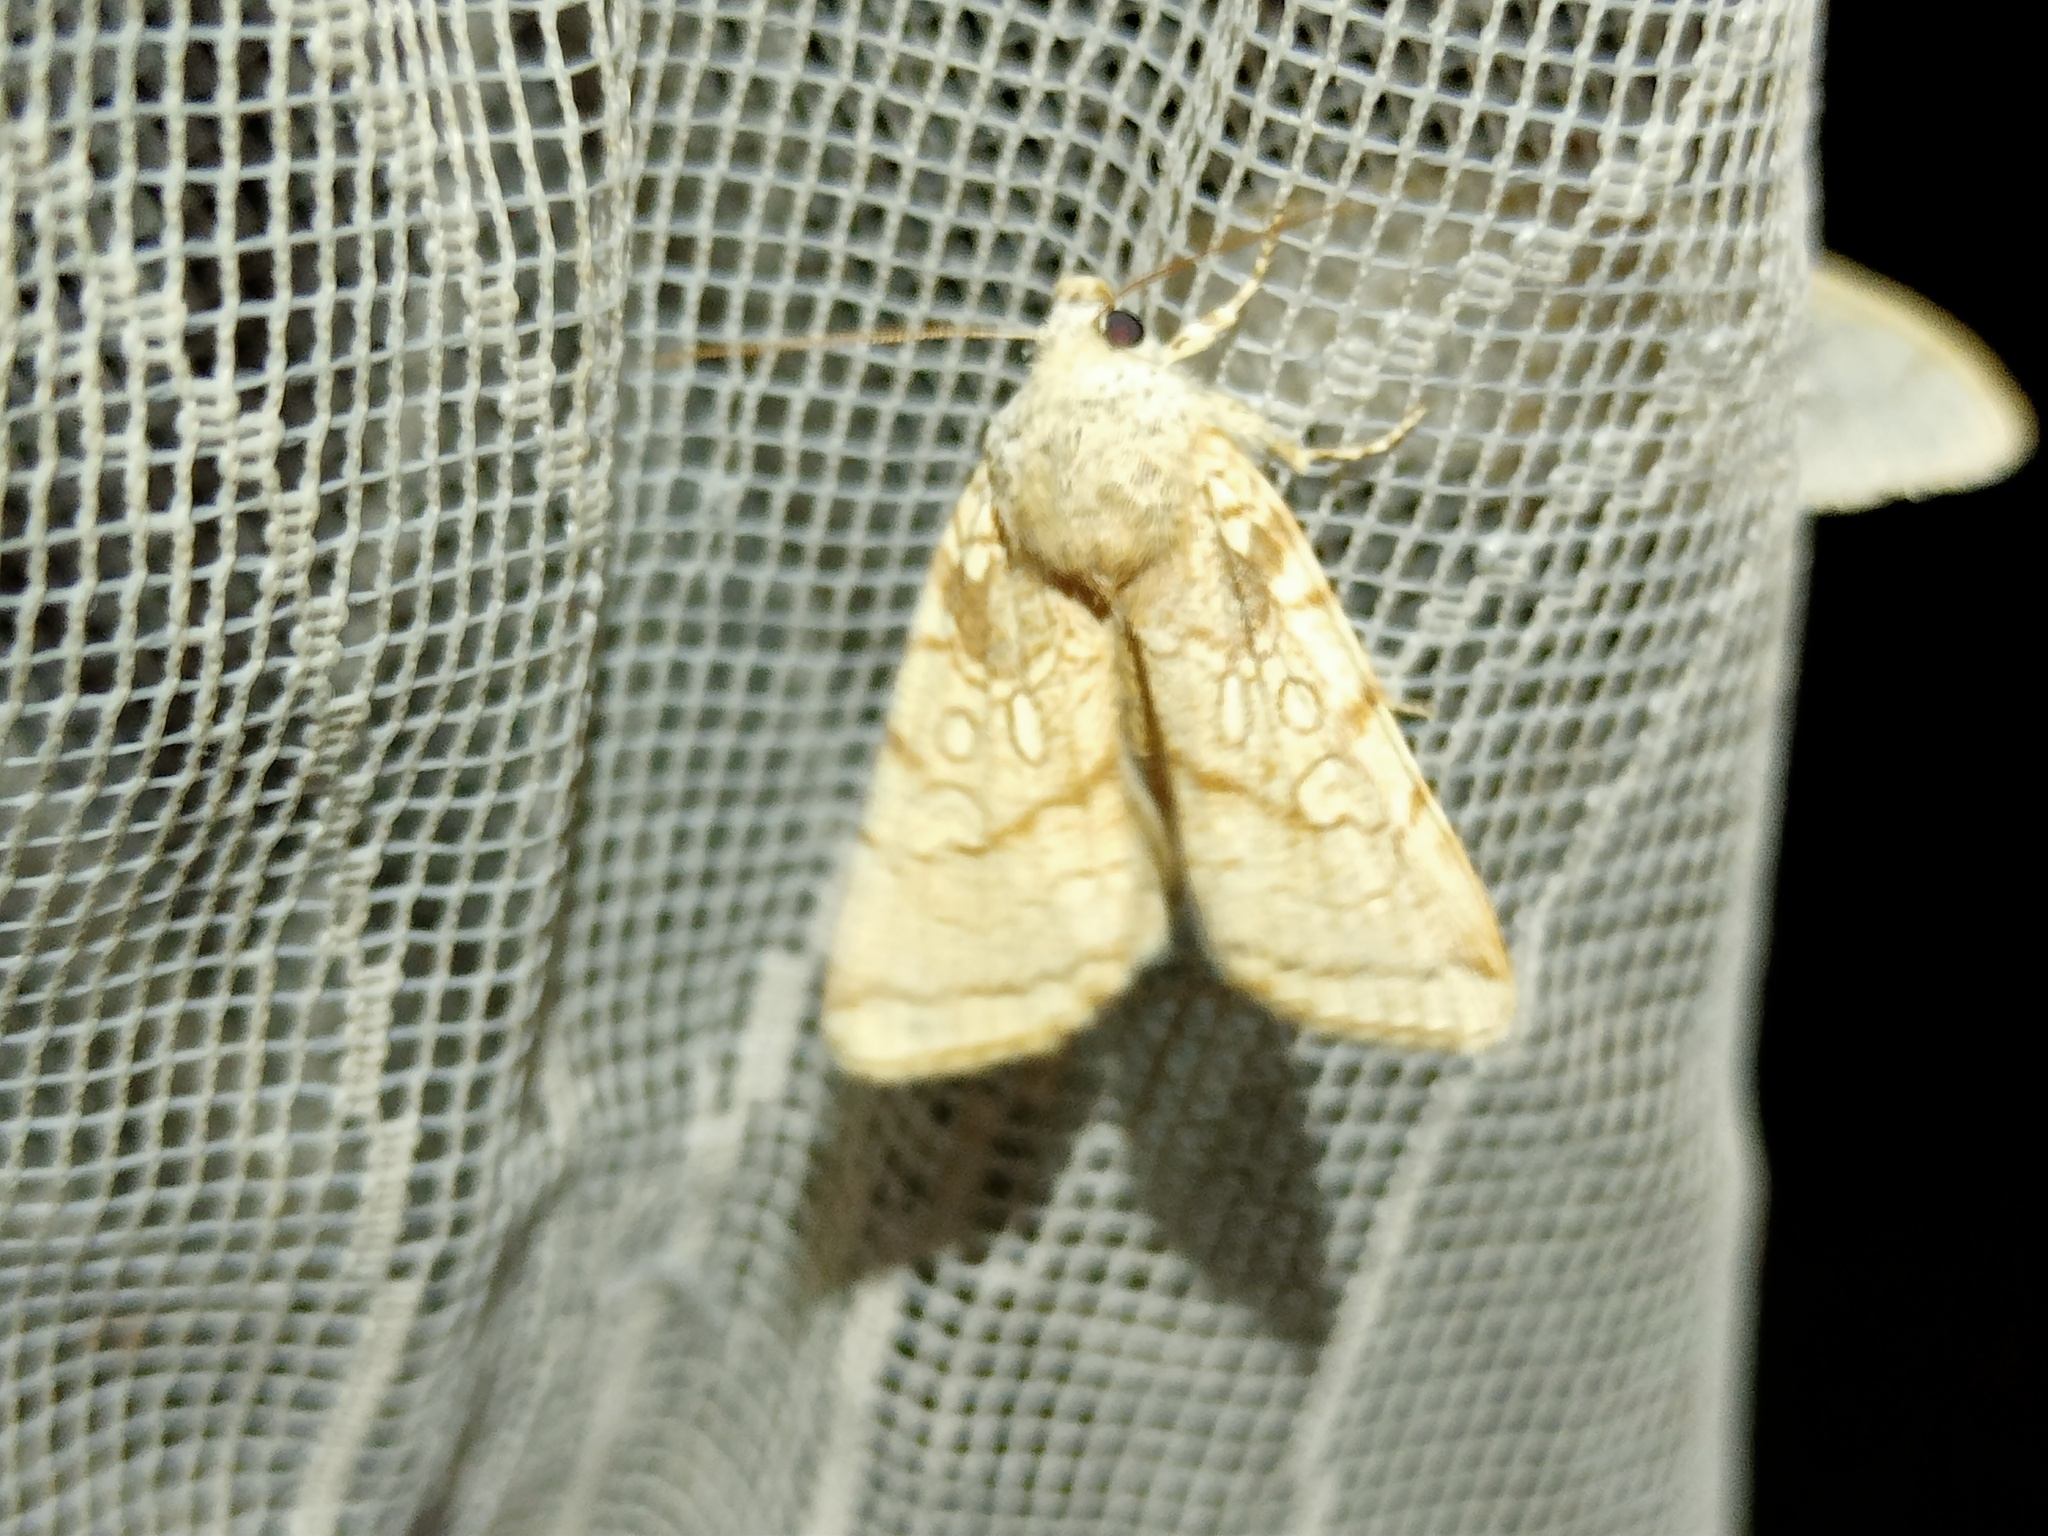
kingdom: Animalia
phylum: Arthropoda
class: Insecta
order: Lepidoptera
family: Noctuidae
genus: Dicycla
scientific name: Dicycla oo
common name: Heart moth
